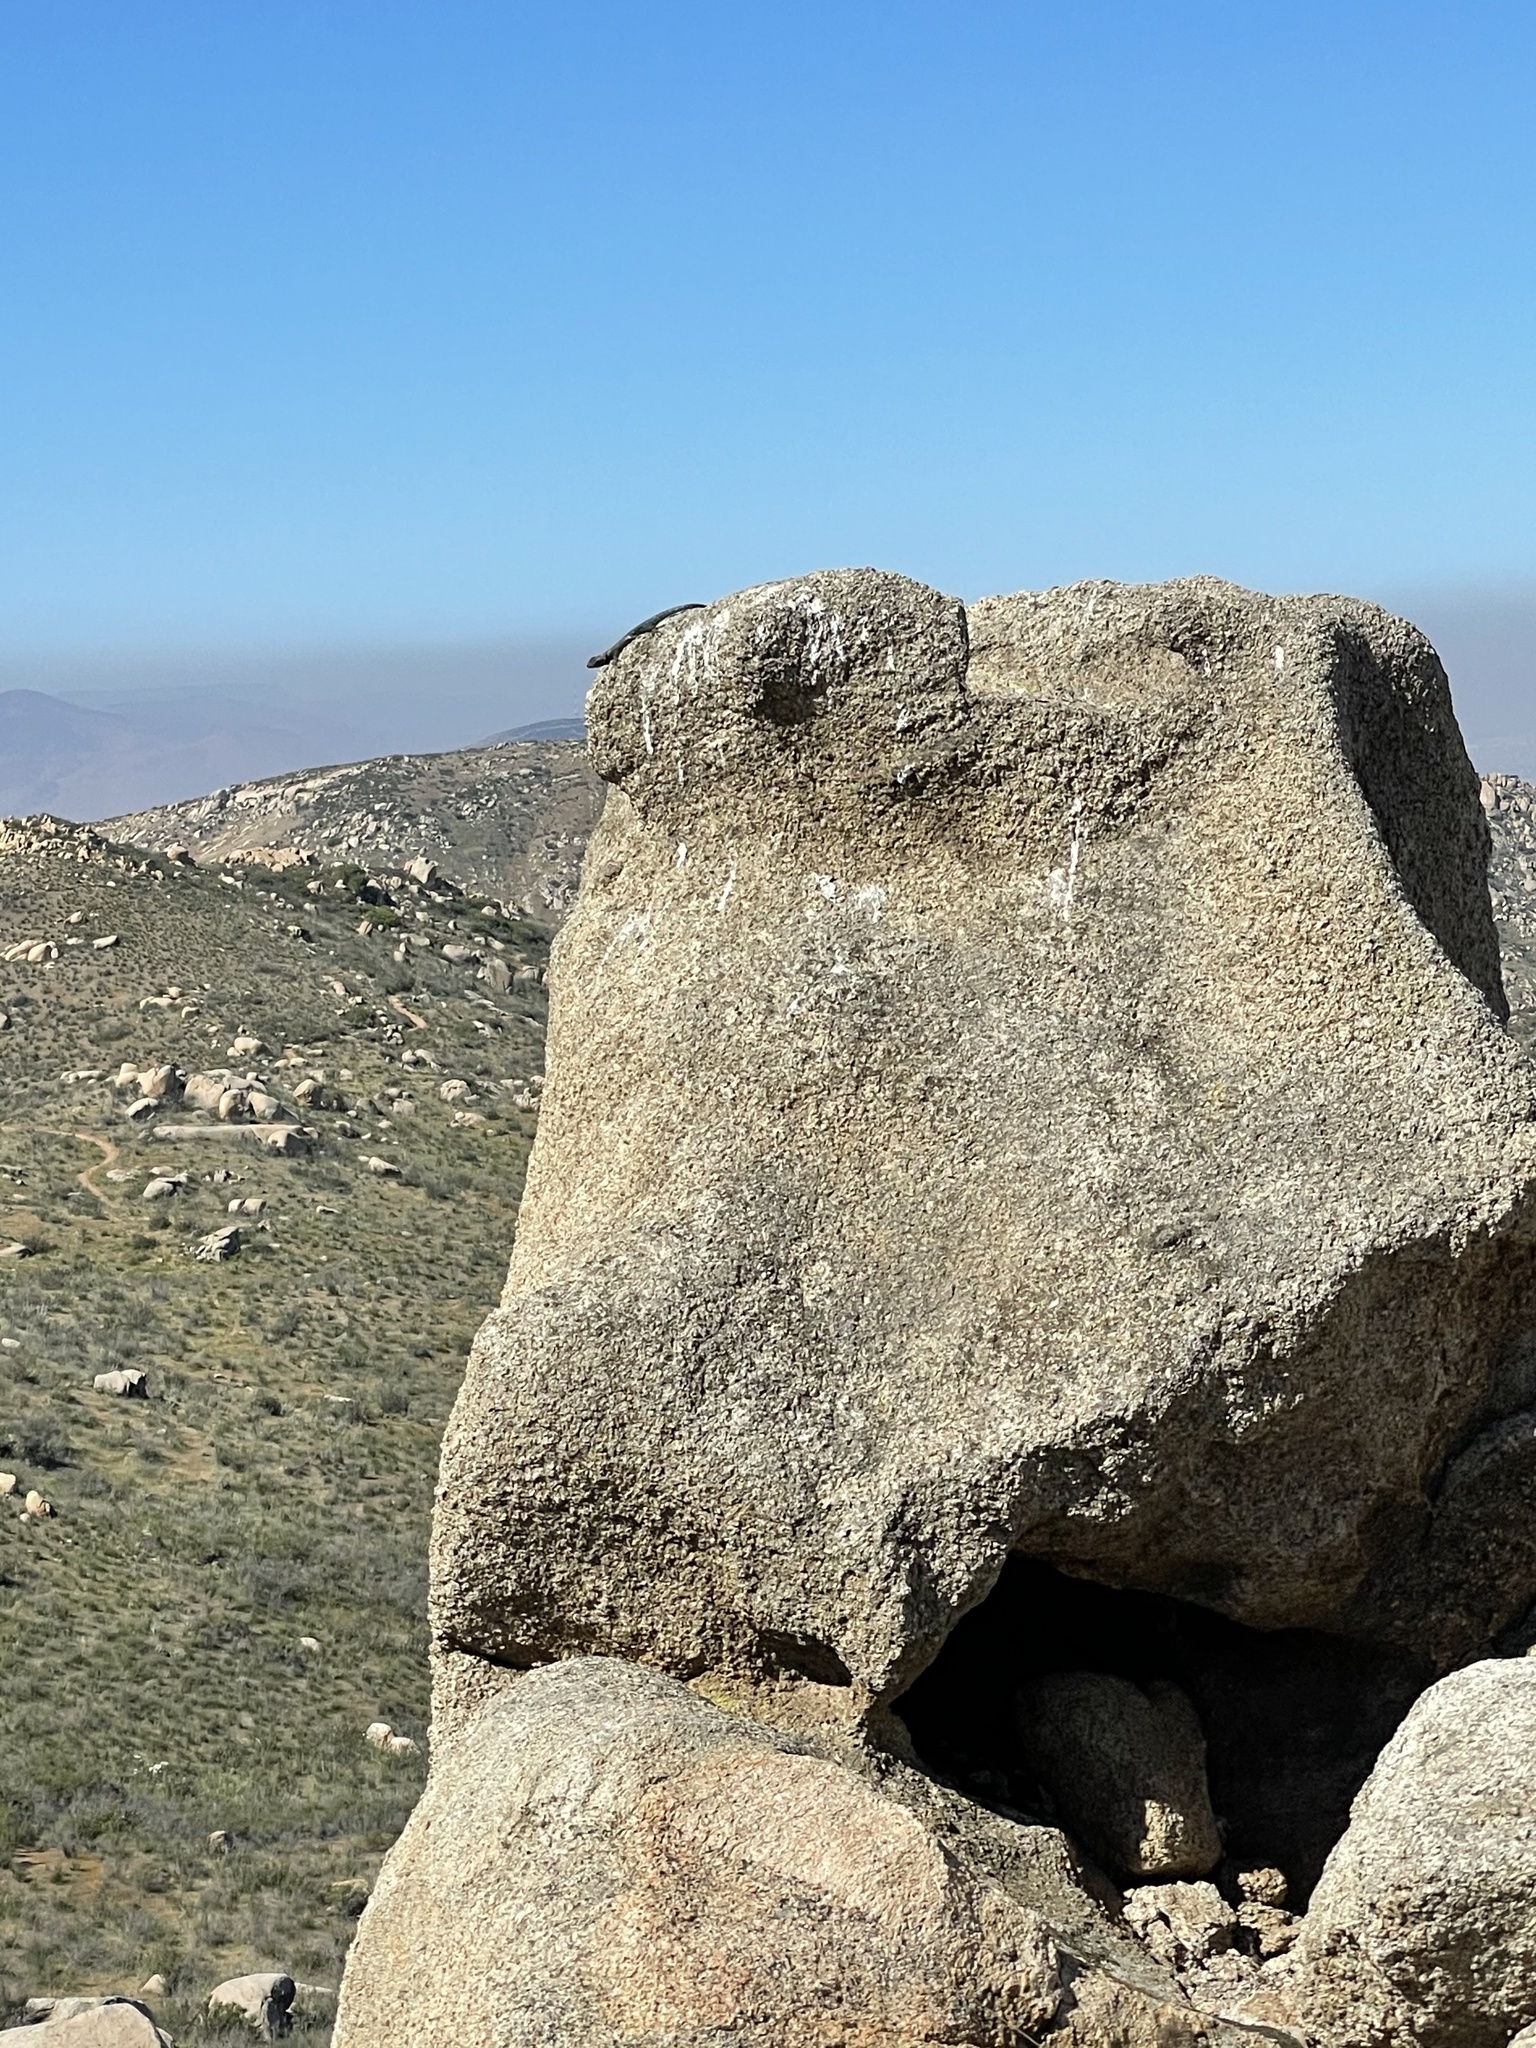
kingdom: Animalia
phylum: Chordata
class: Squamata
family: Phrynosomatidae
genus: Sceloporus
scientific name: Sceloporus orcutti
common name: Granite spiny lizard
